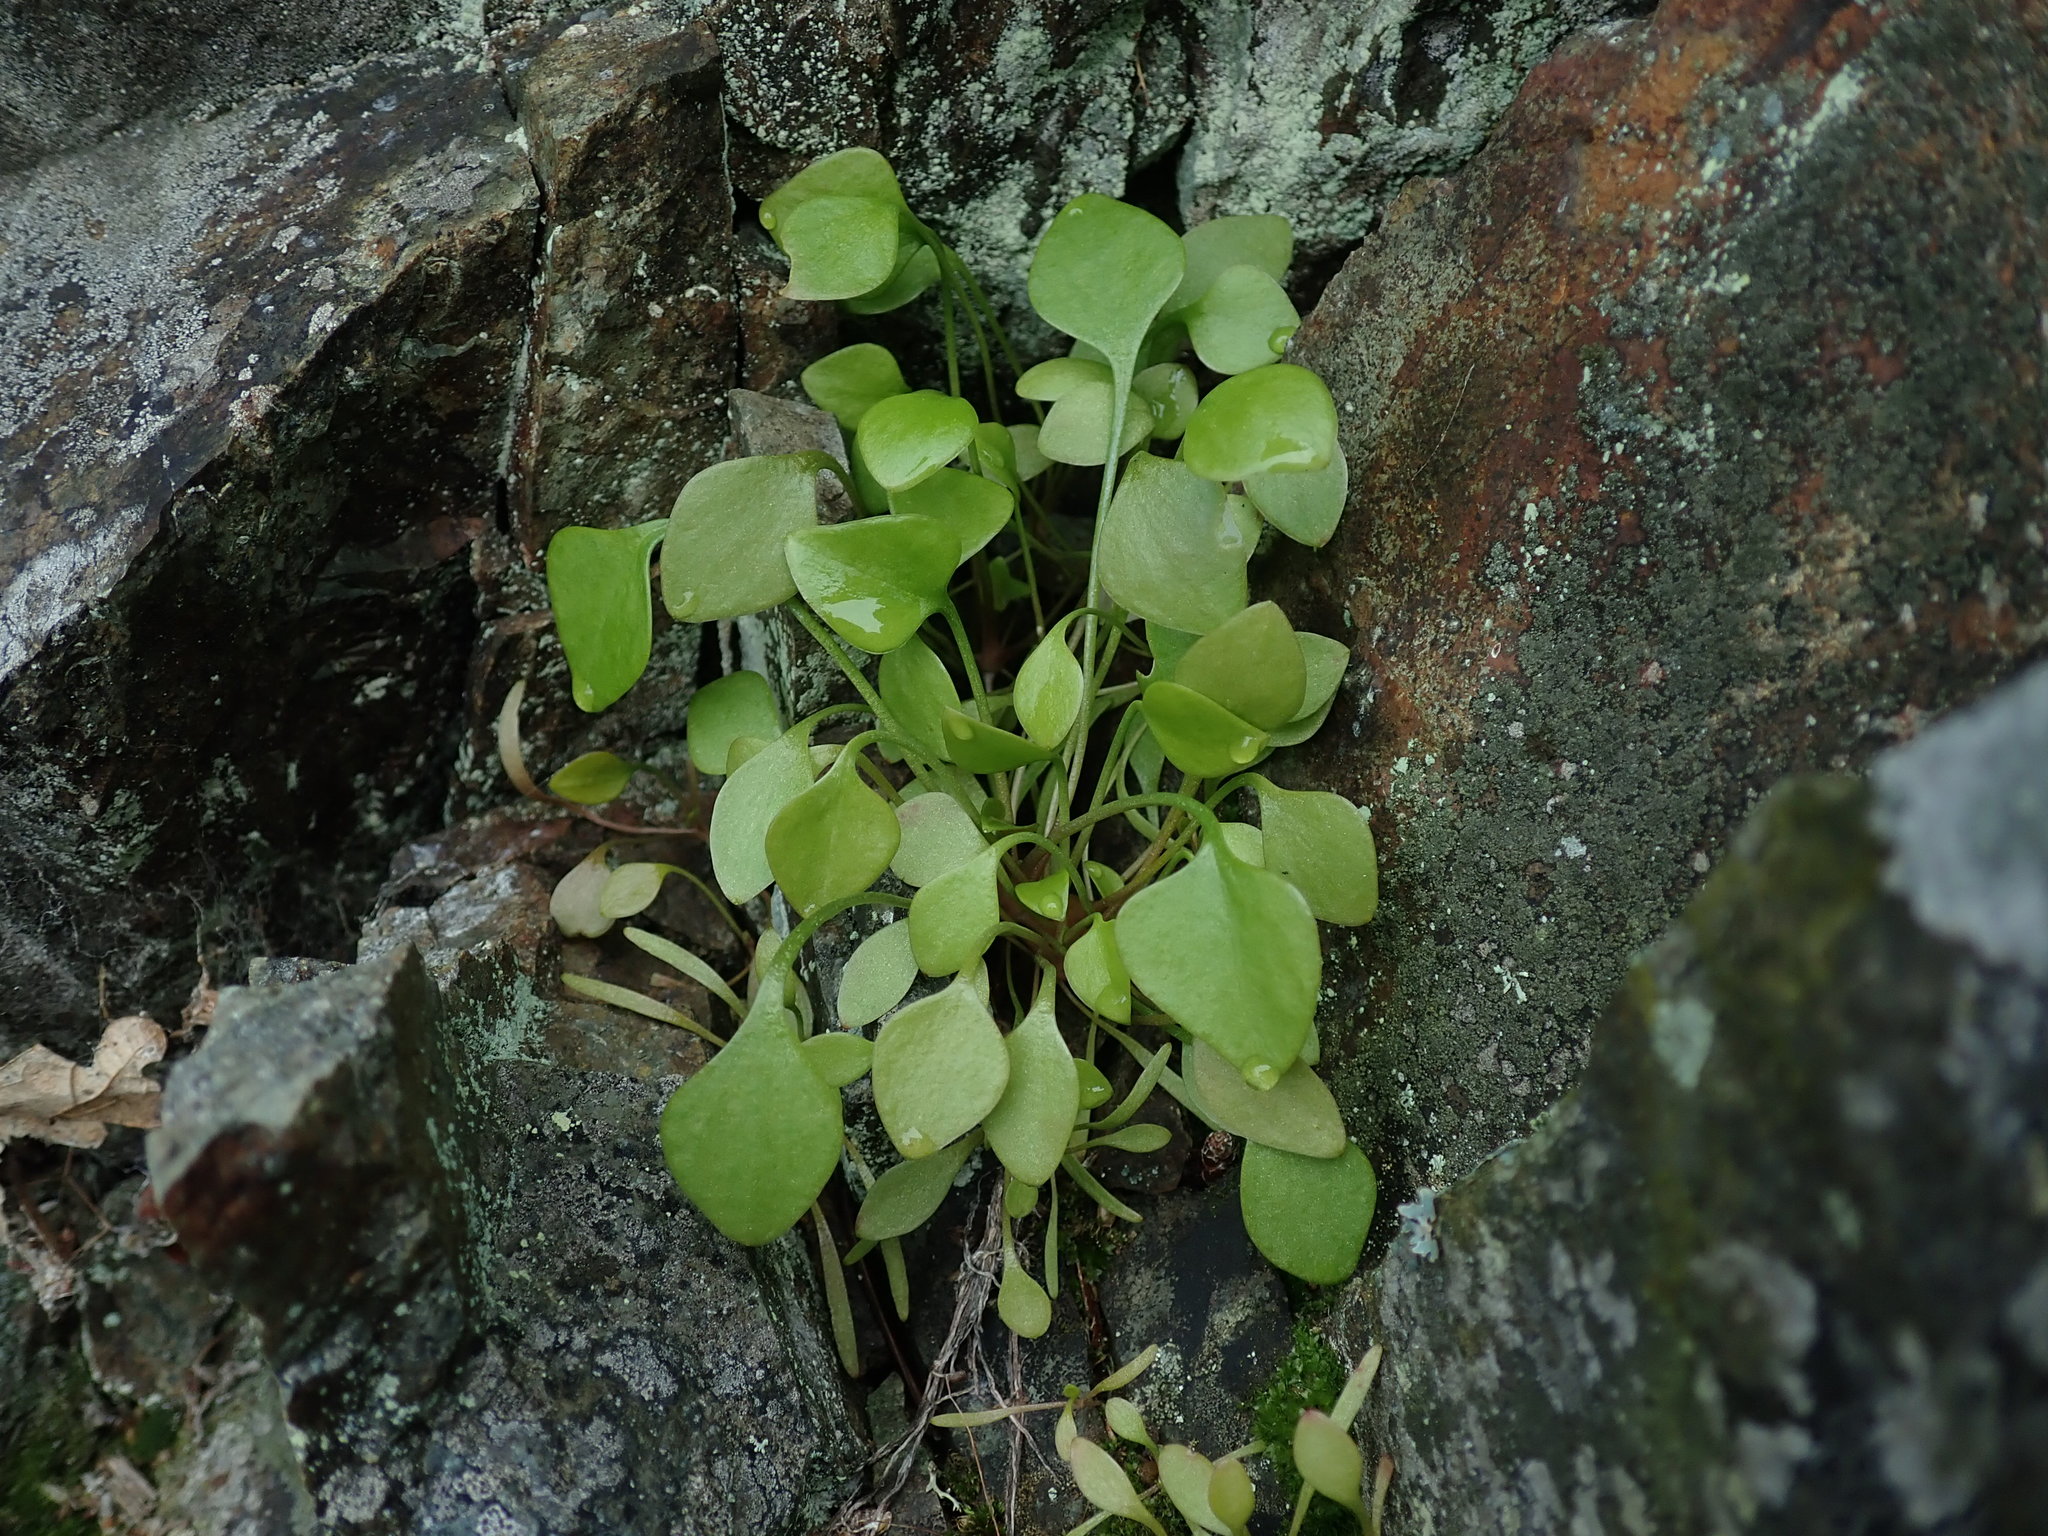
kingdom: Plantae
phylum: Tracheophyta
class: Magnoliopsida
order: Caryophyllales
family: Montiaceae
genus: Claytonia
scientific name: Claytonia perfoliata
